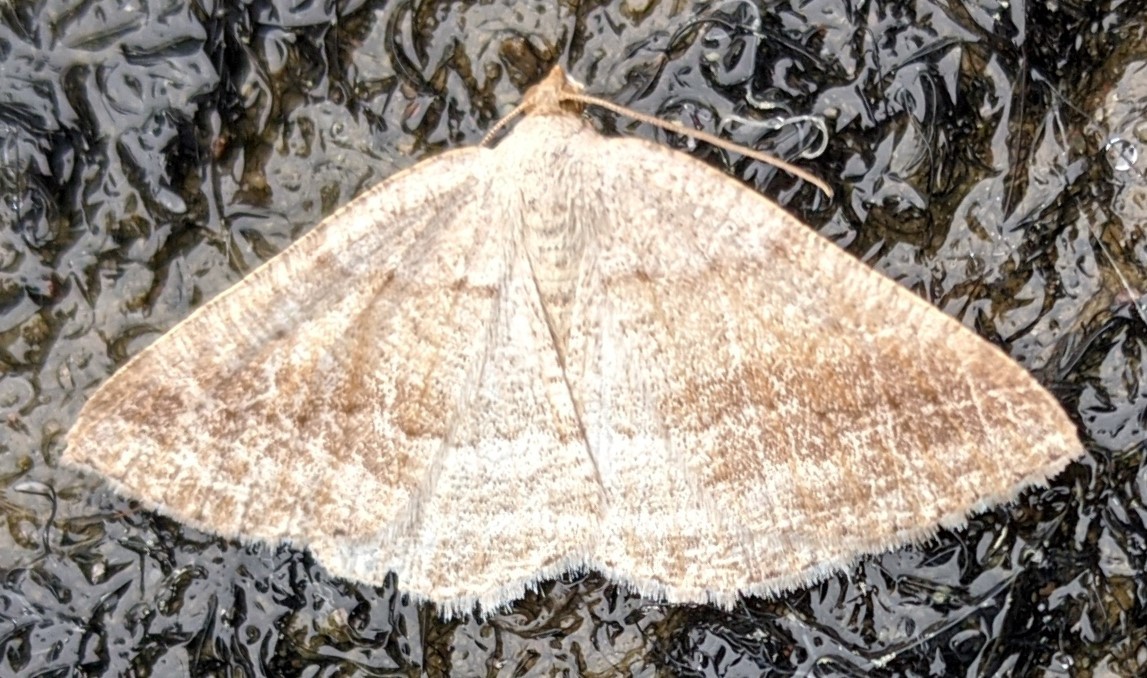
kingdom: Animalia
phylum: Arthropoda
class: Insecta
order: Lepidoptera
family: Geometridae
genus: Tacparia
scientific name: Tacparia atropunctata
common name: Northern pale alder
